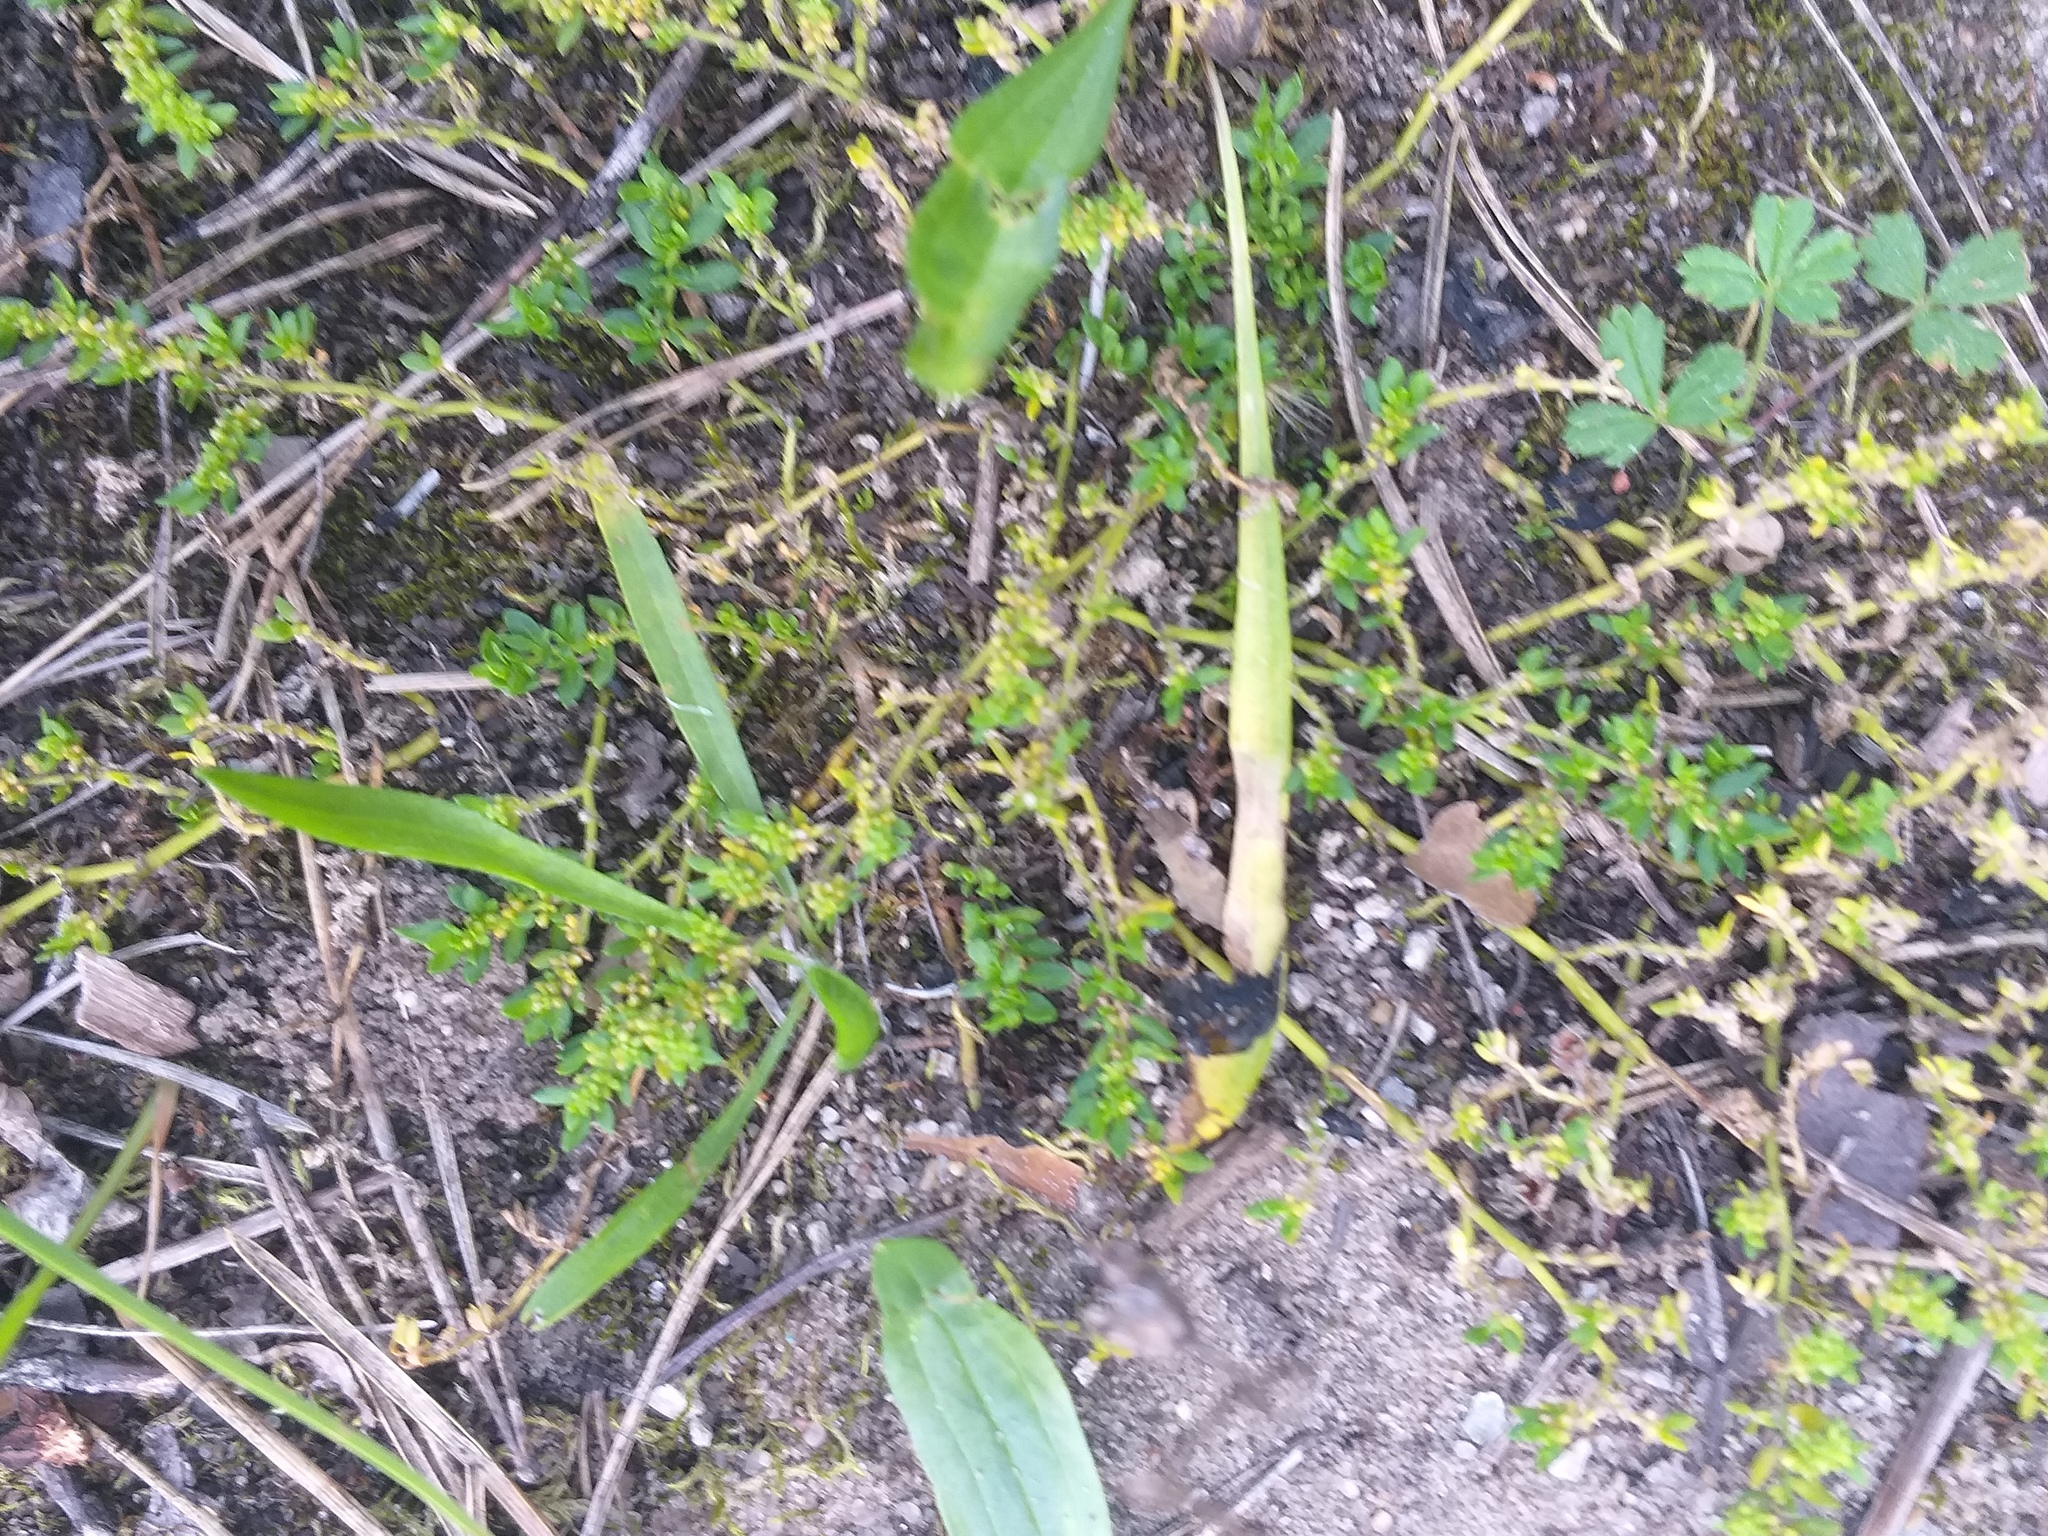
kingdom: Plantae
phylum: Tracheophyta
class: Magnoliopsida
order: Caryophyllales
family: Caryophyllaceae
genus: Herniaria
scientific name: Herniaria glabra
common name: Smooth rupturewort
